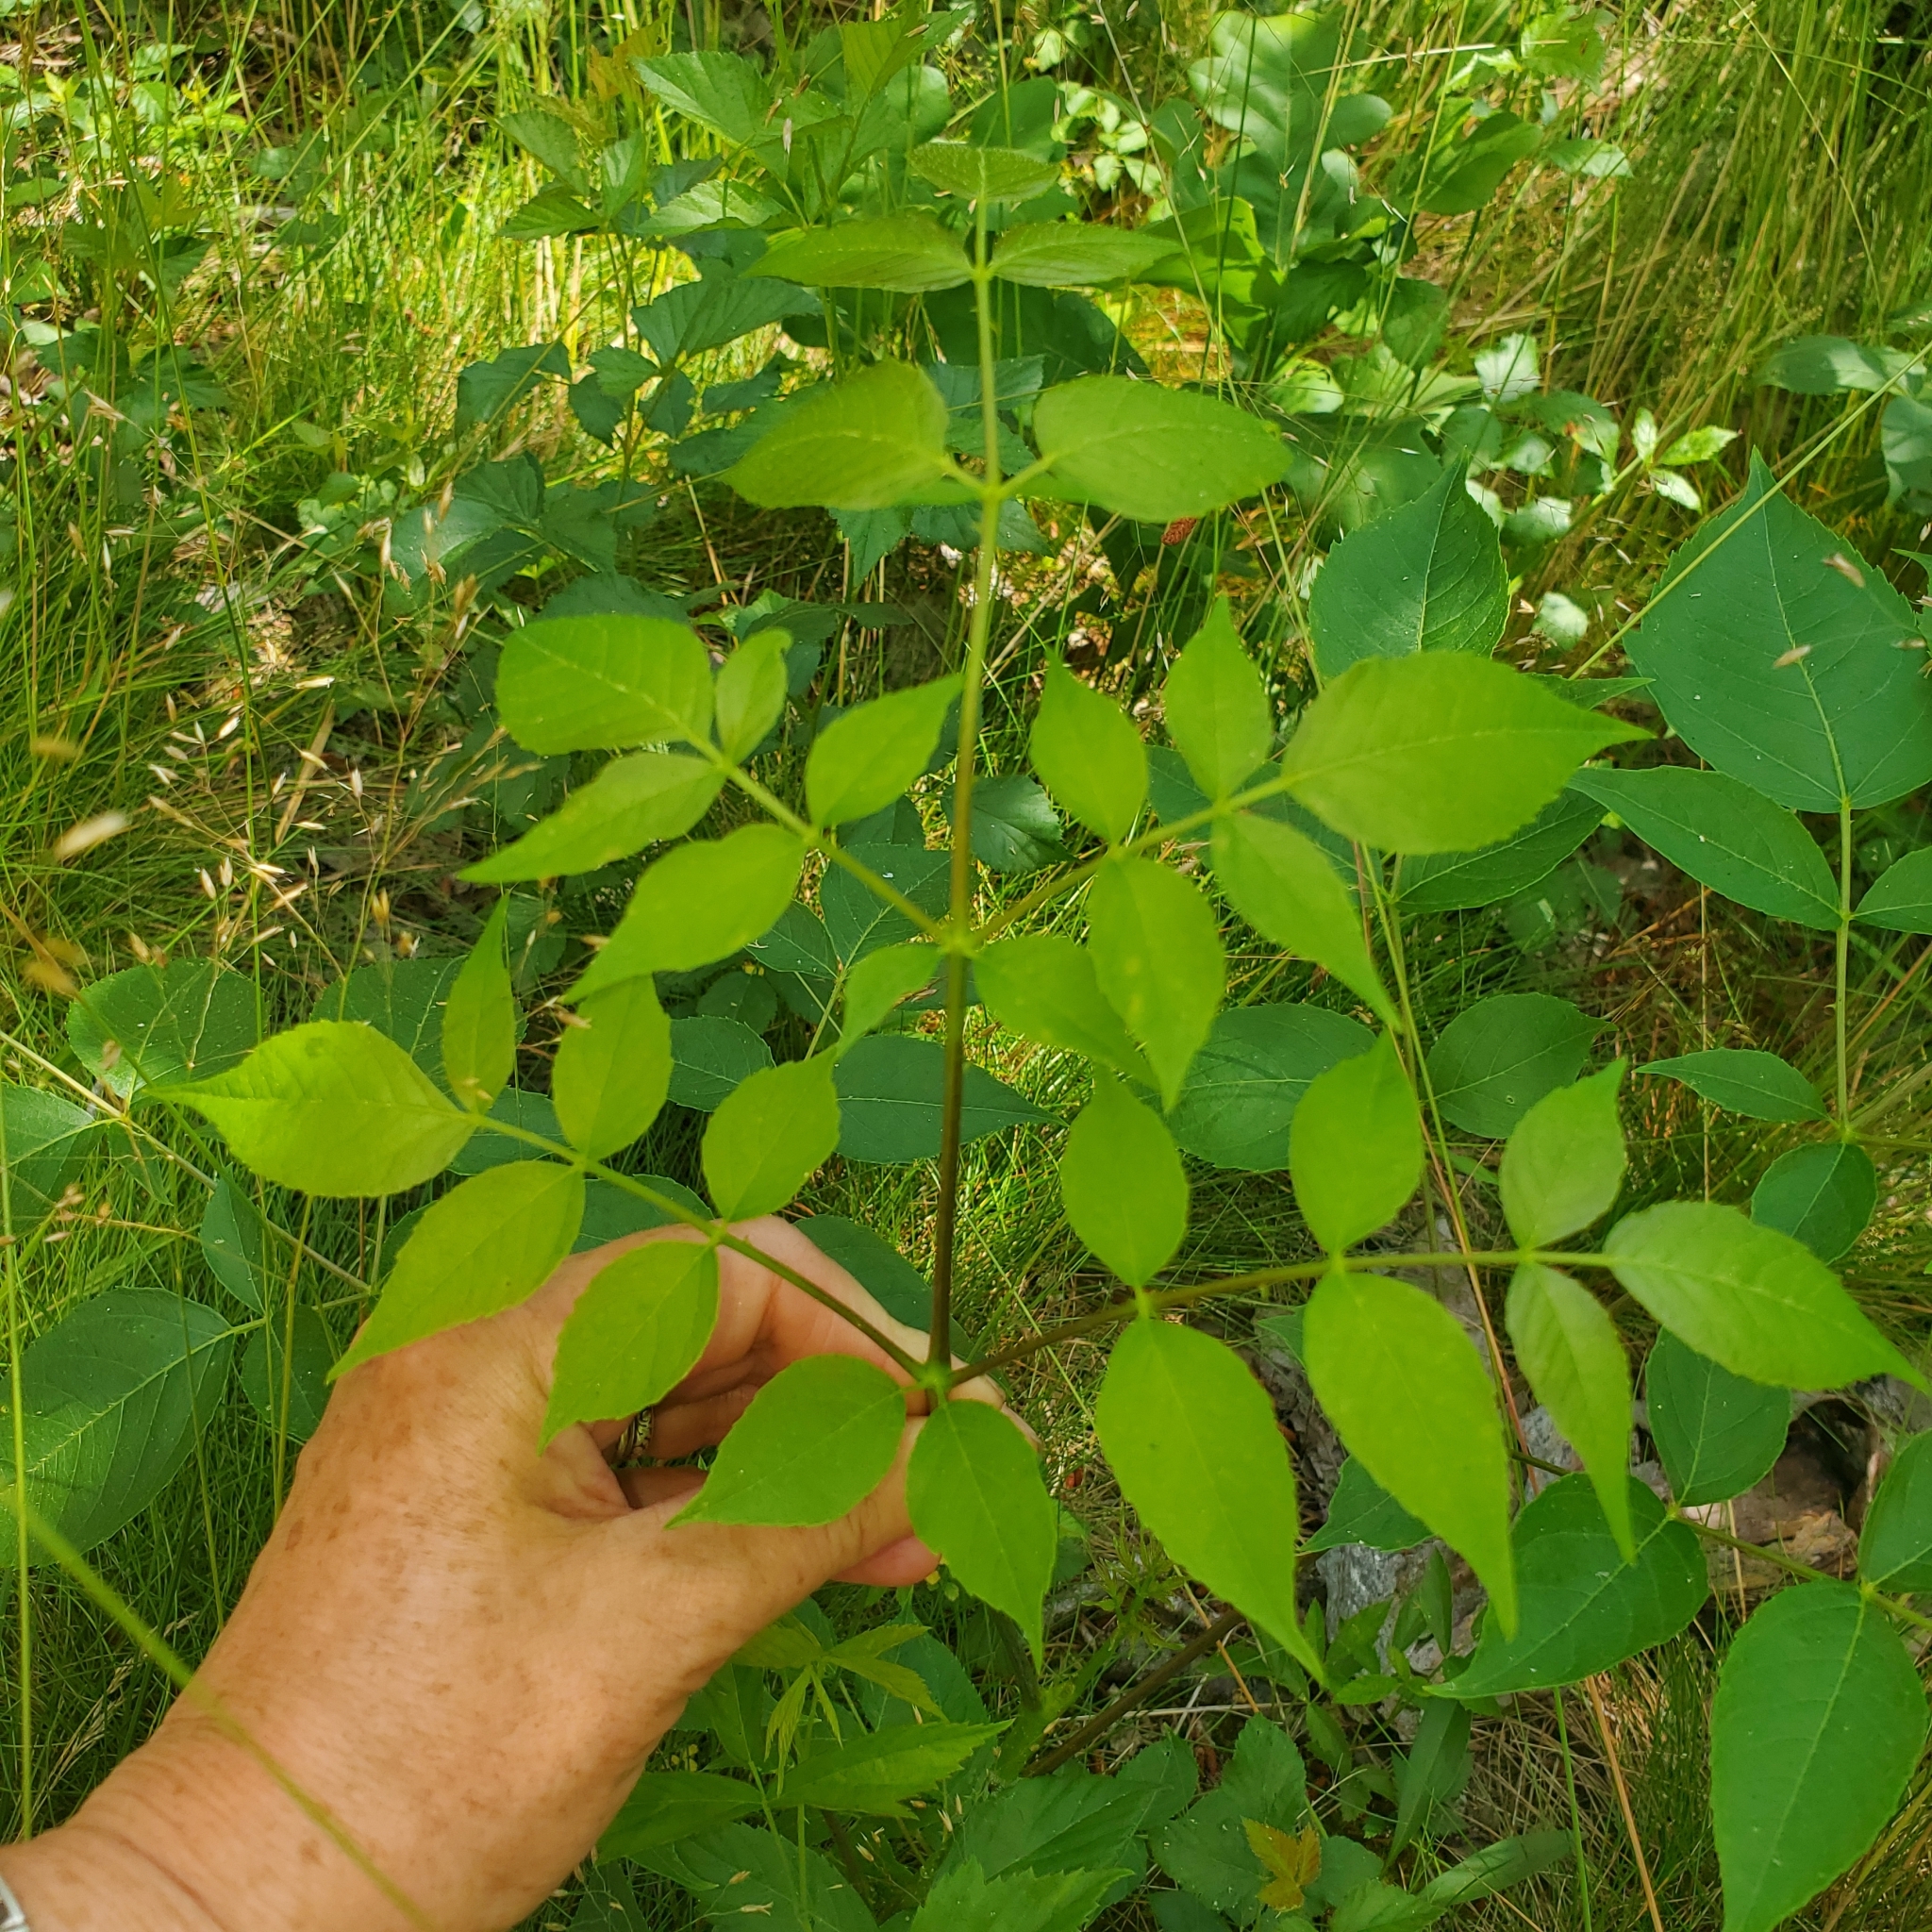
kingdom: Plantae
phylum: Tracheophyta
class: Magnoliopsida
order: Apiales
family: Araliaceae
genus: Aralia
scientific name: Aralia spinosa
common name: Hercules'-club
